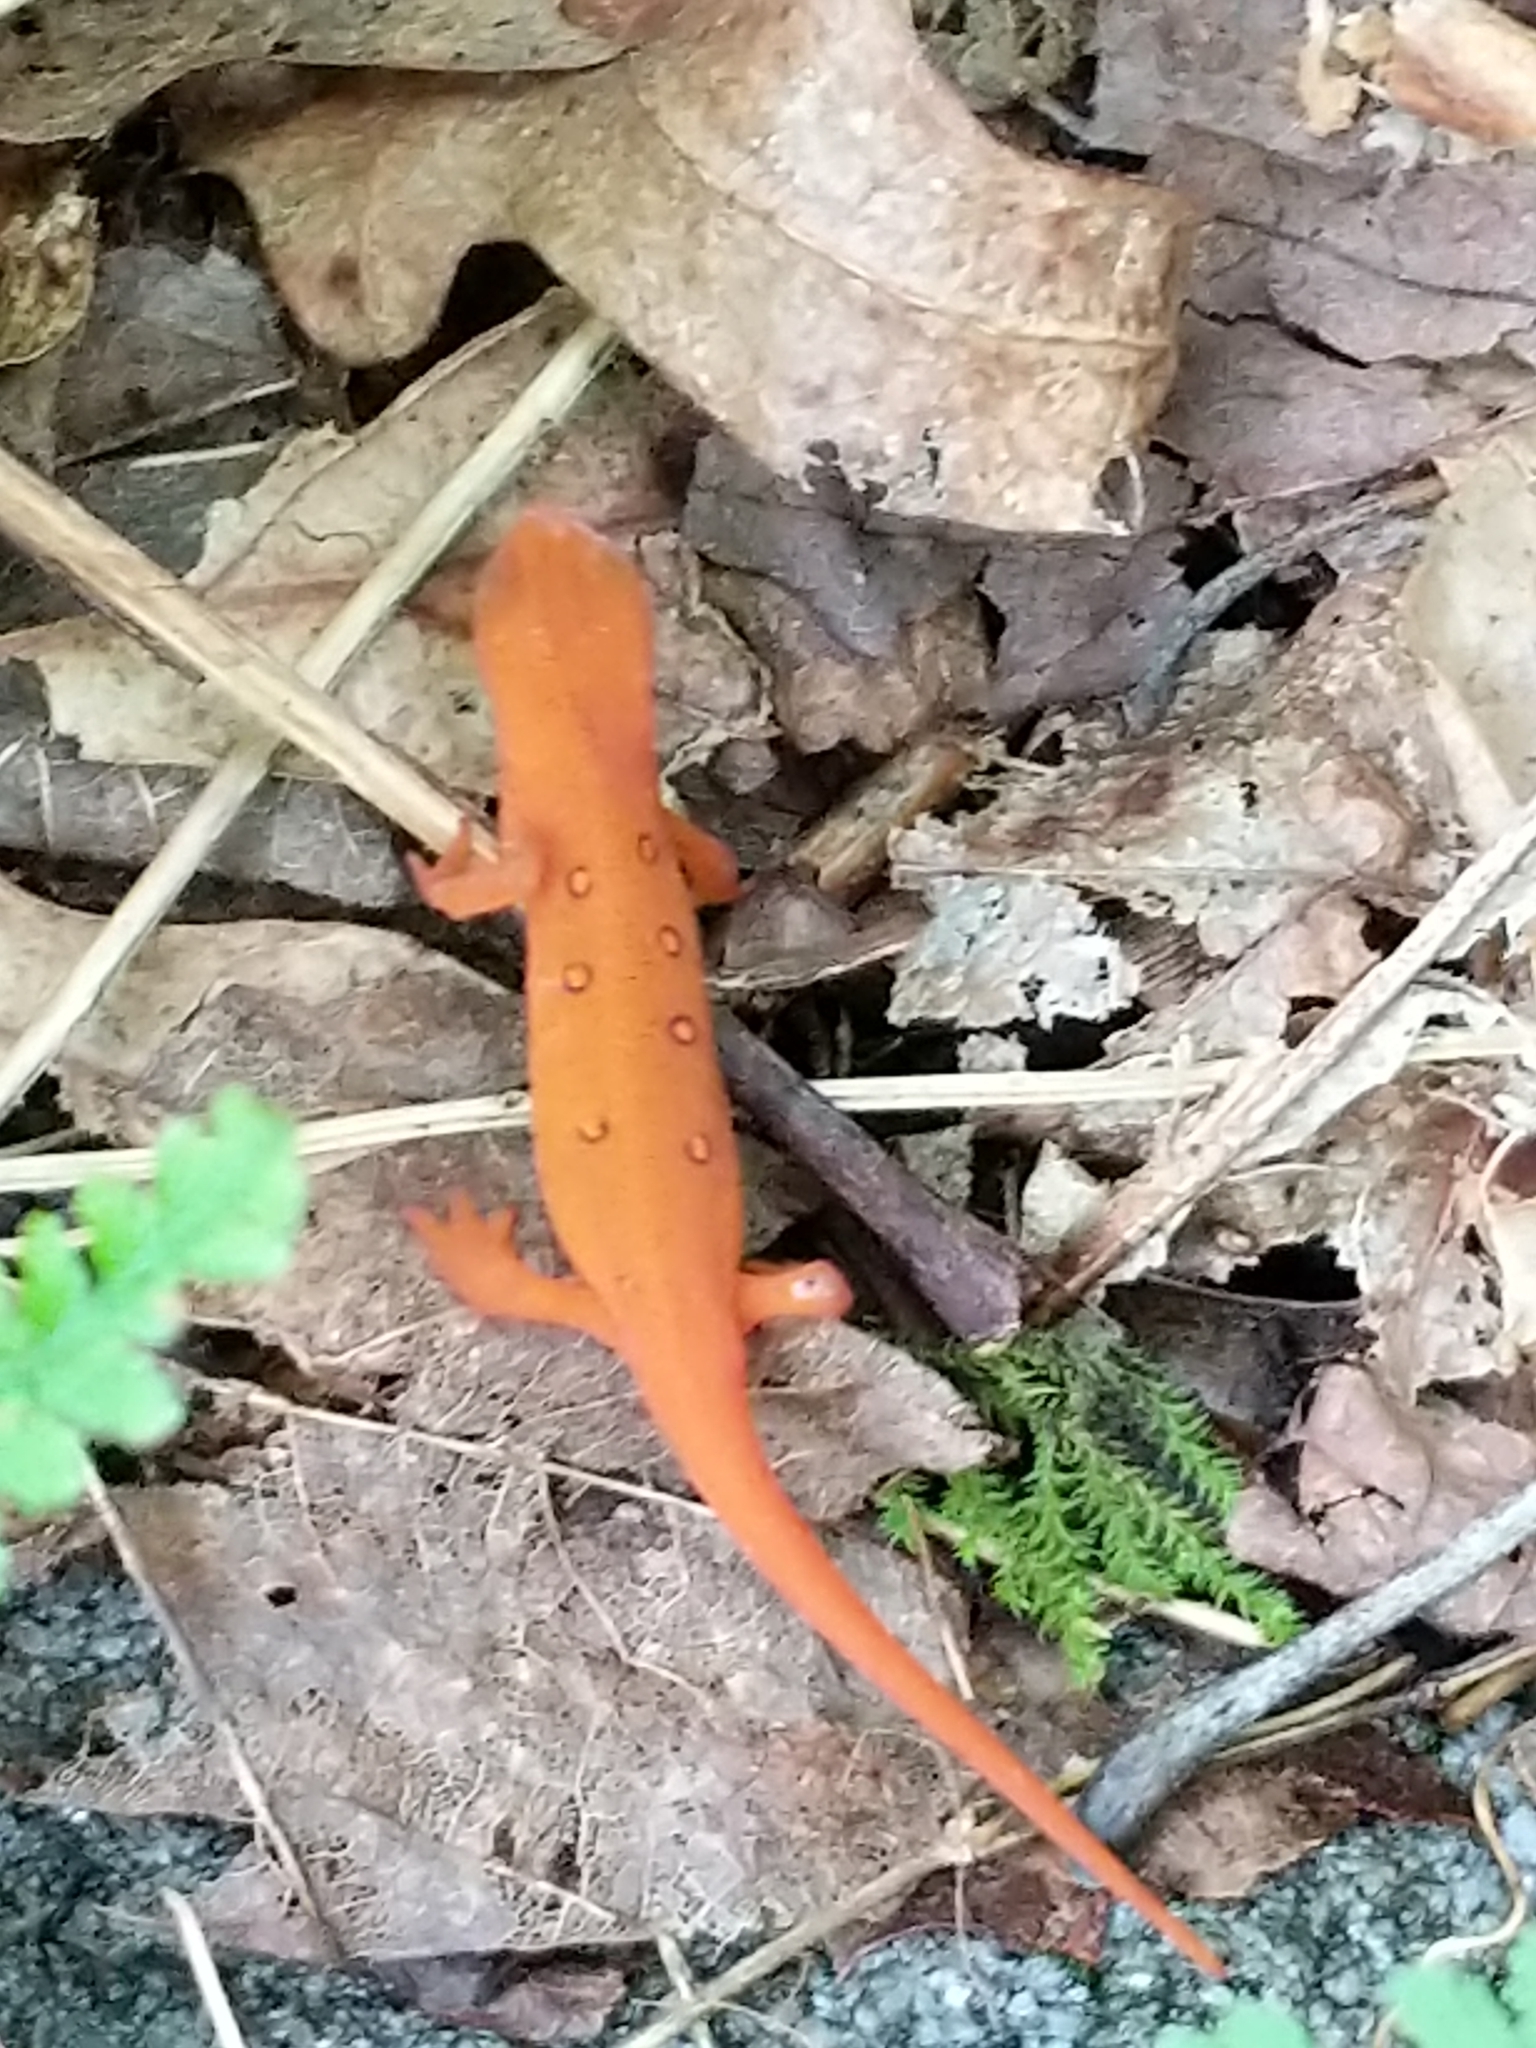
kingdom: Animalia
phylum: Chordata
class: Amphibia
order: Caudata
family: Salamandridae
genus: Notophthalmus
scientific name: Notophthalmus viridescens
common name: Eastern newt
